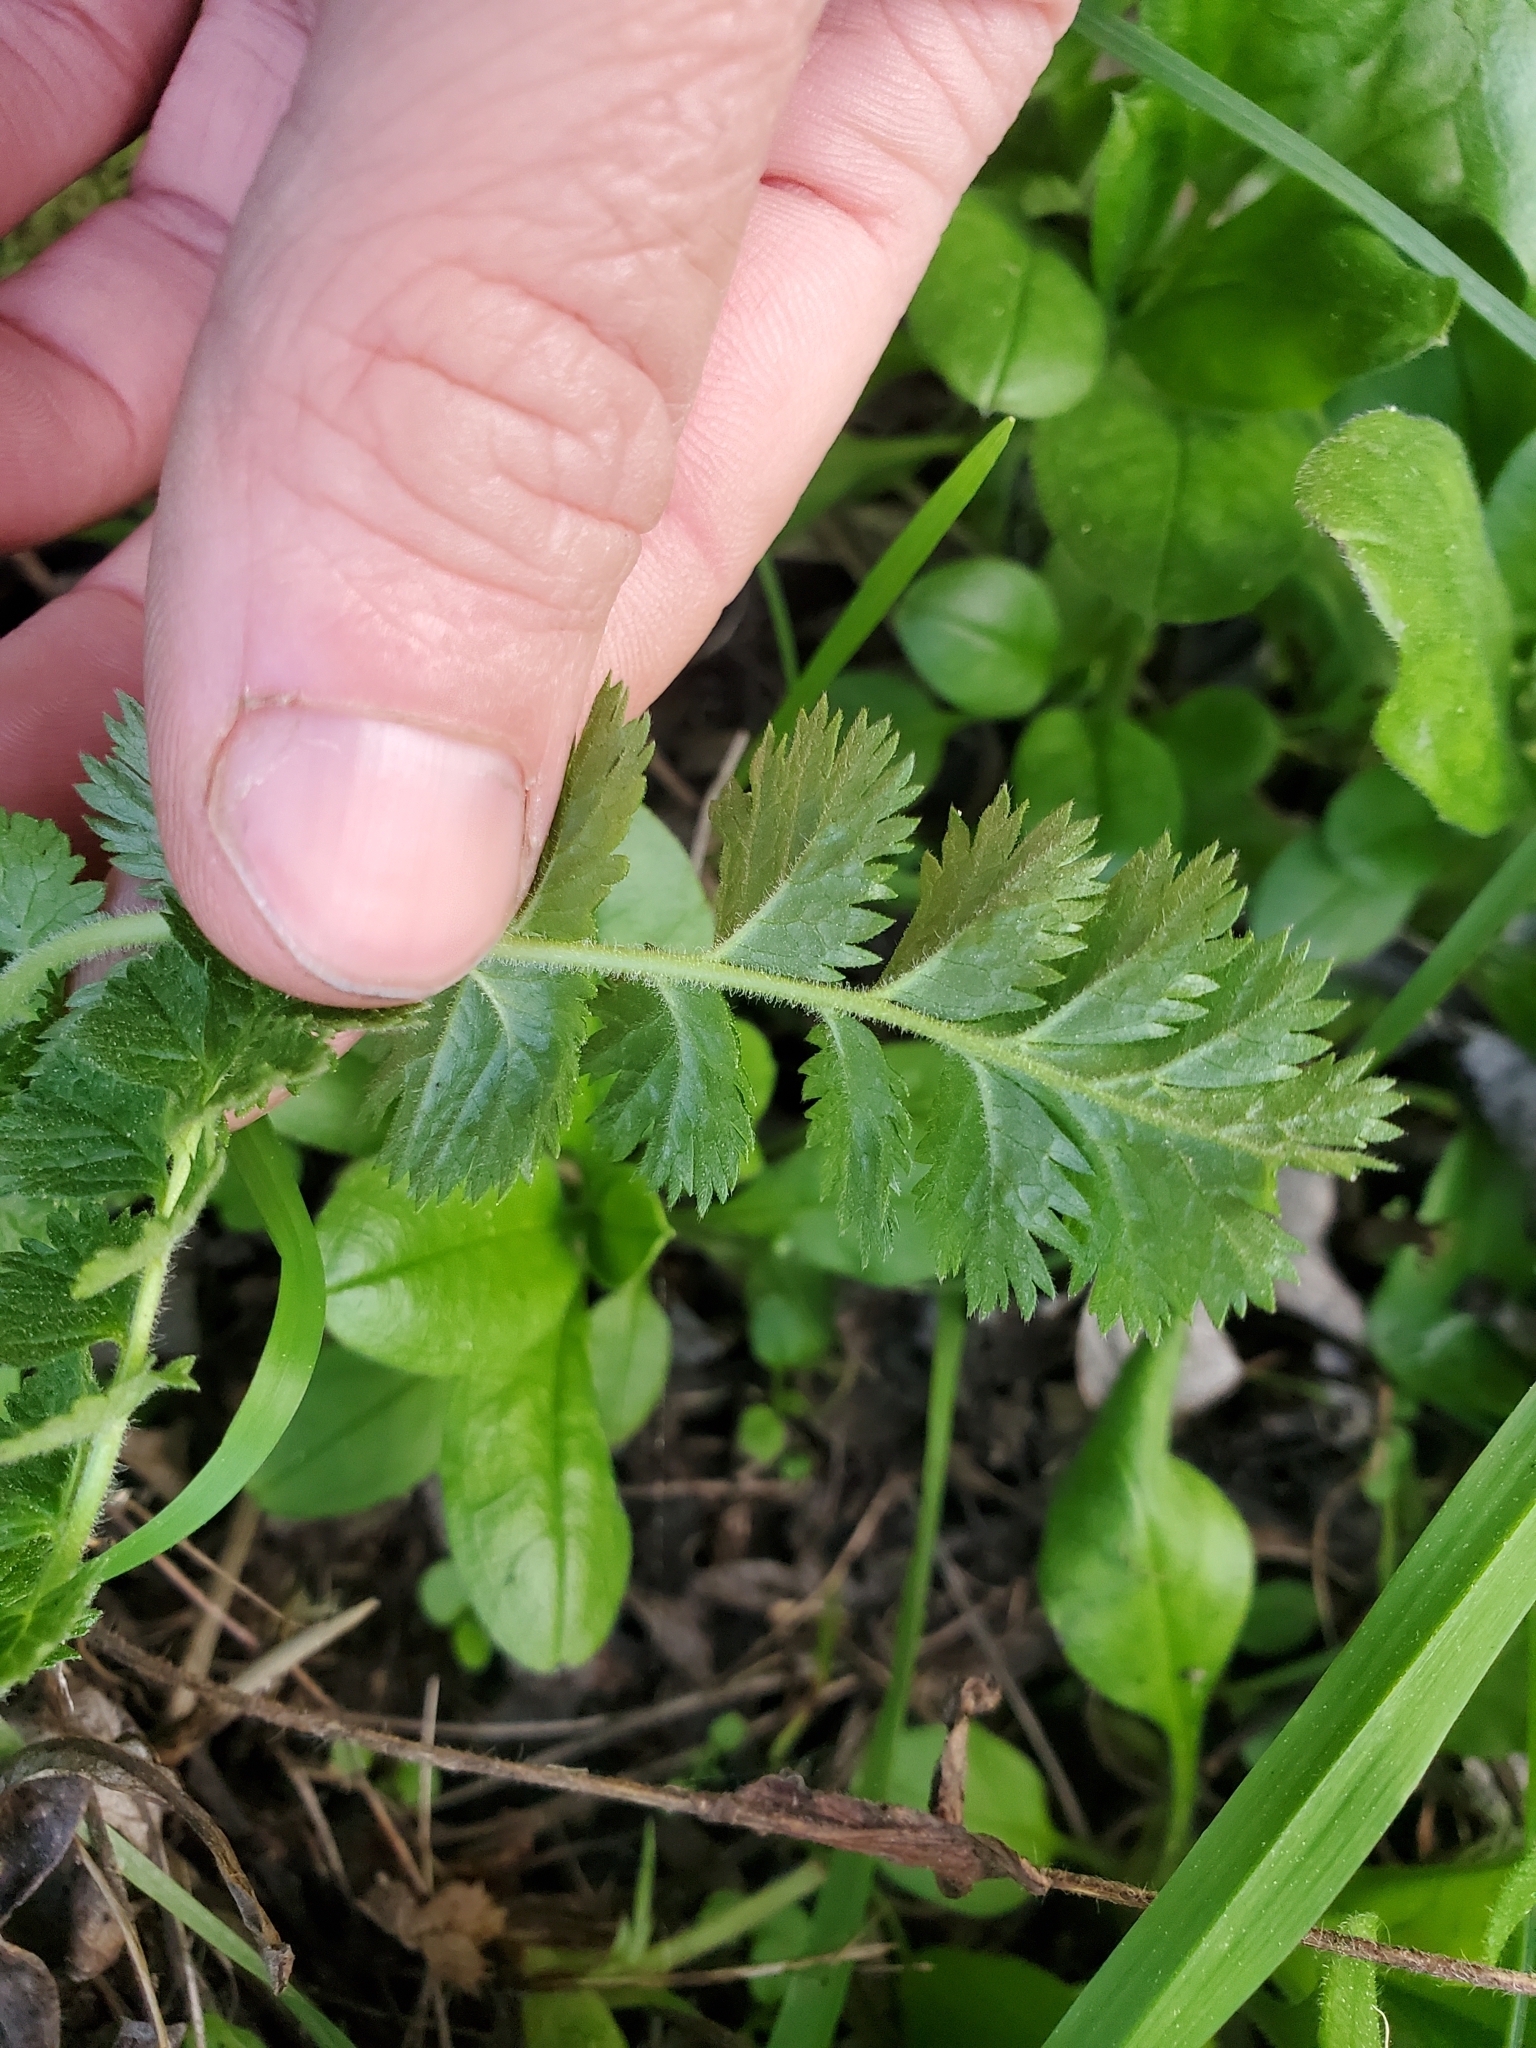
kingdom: Plantae
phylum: Tracheophyta
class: Magnoliopsida
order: Rosales
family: Rosaceae
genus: Potentilla
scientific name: Potentilla californica
